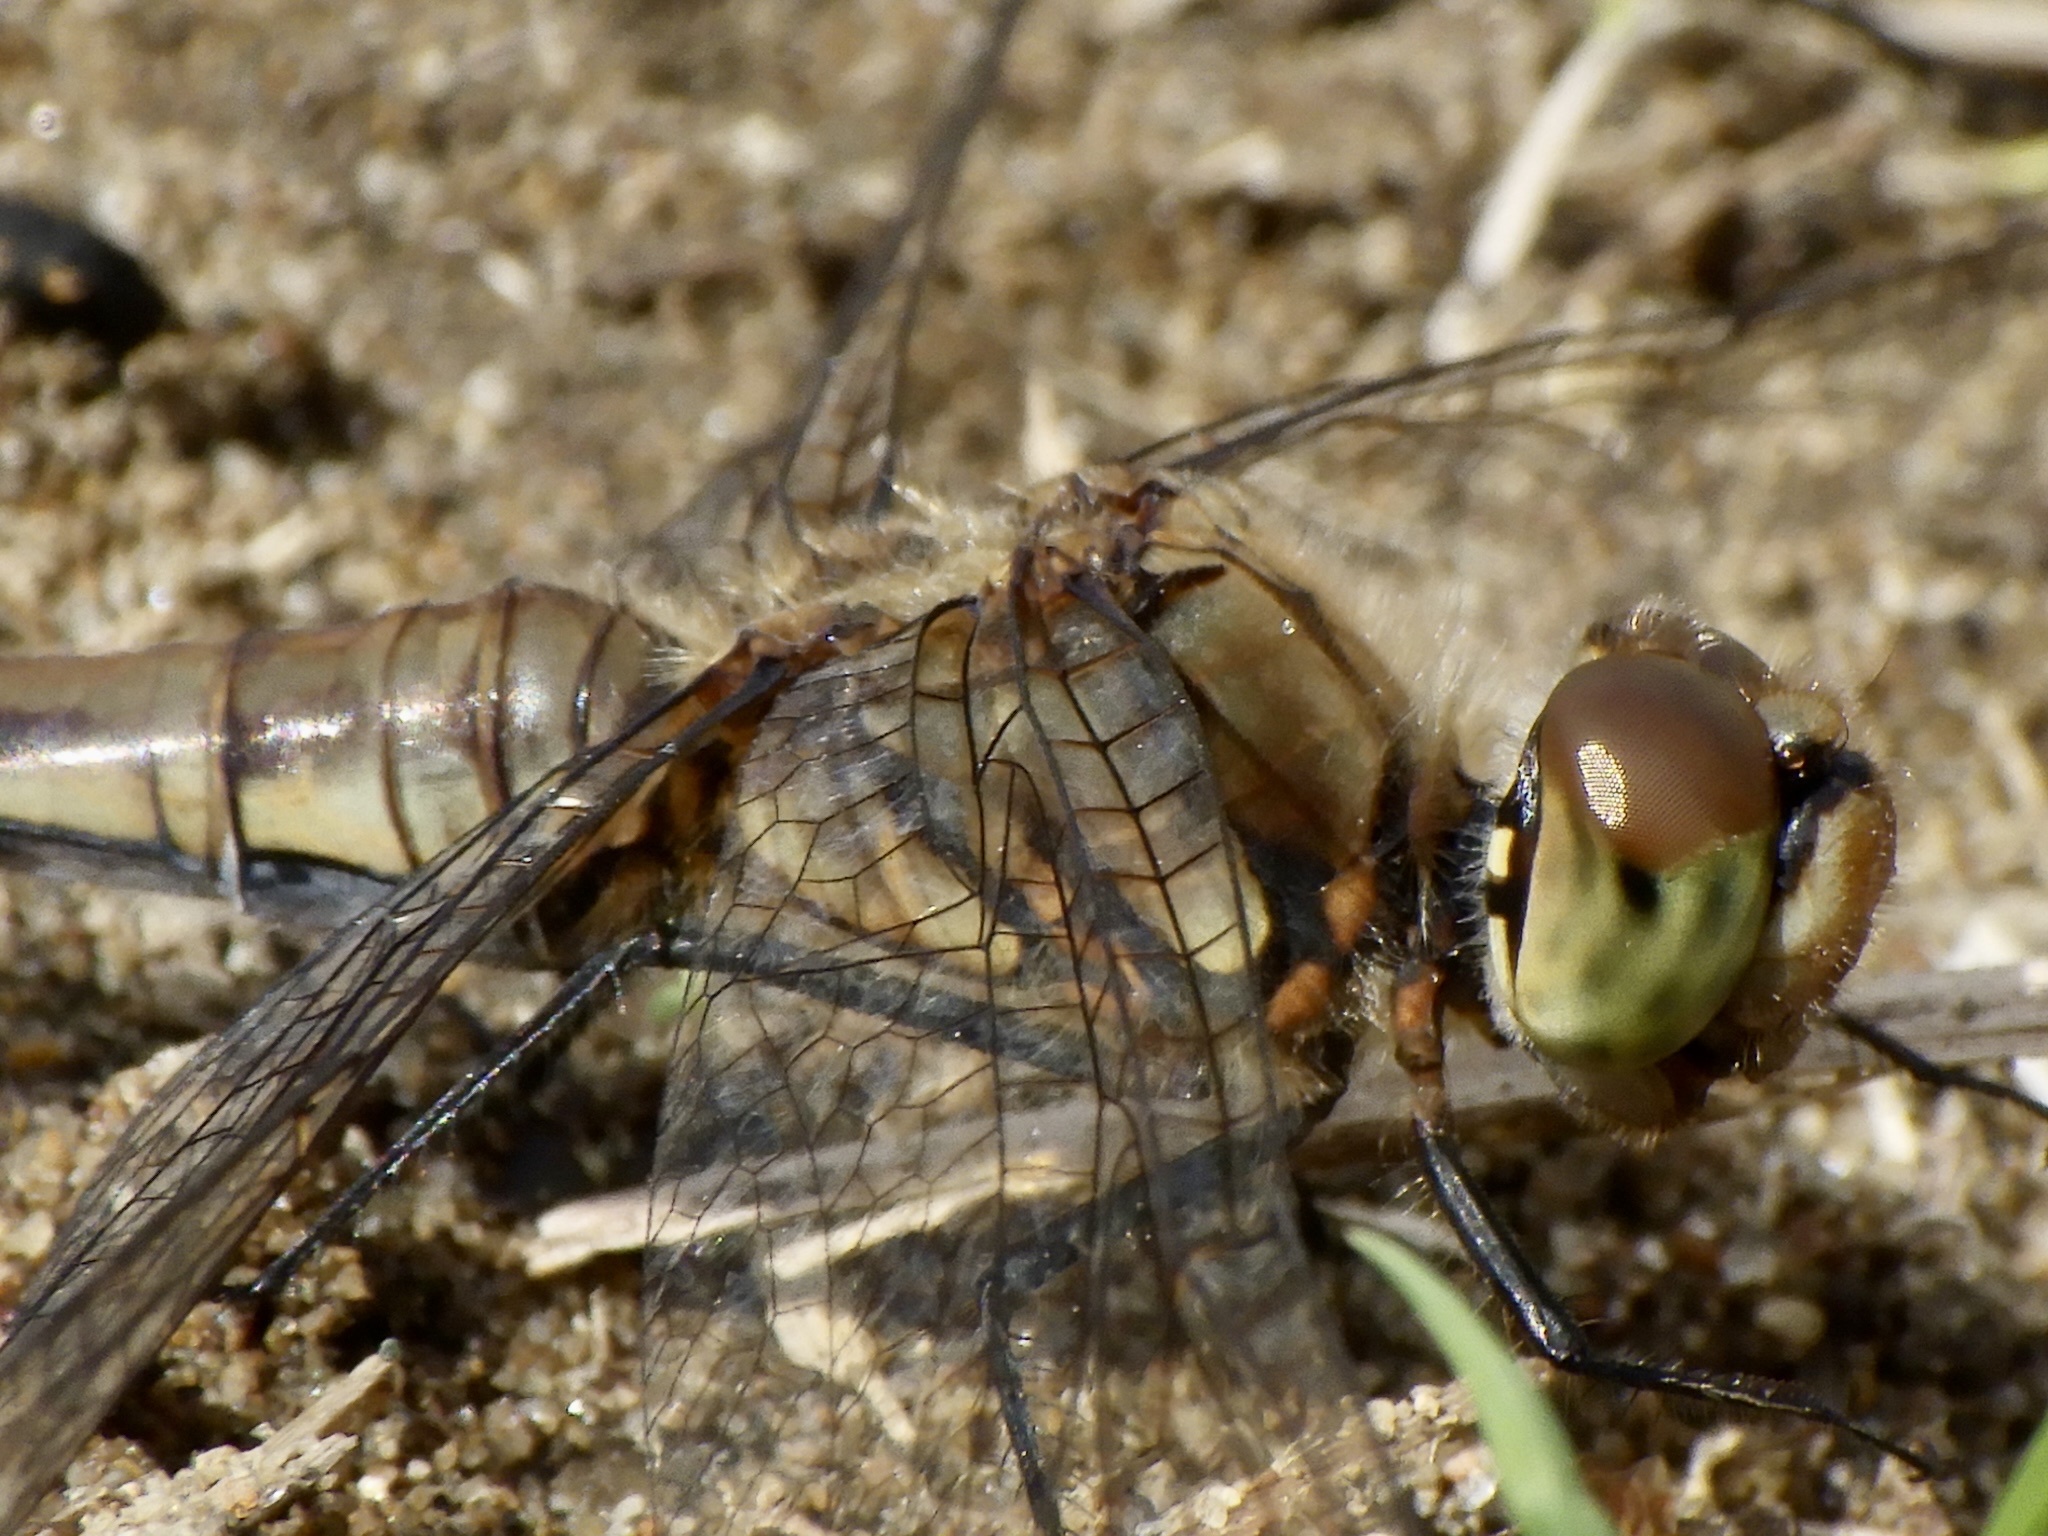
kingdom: Animalia
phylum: Arthropoda
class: Insecta
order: Odonata
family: Libellulidae
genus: Sympetrum
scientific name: Sympetrum frequens
